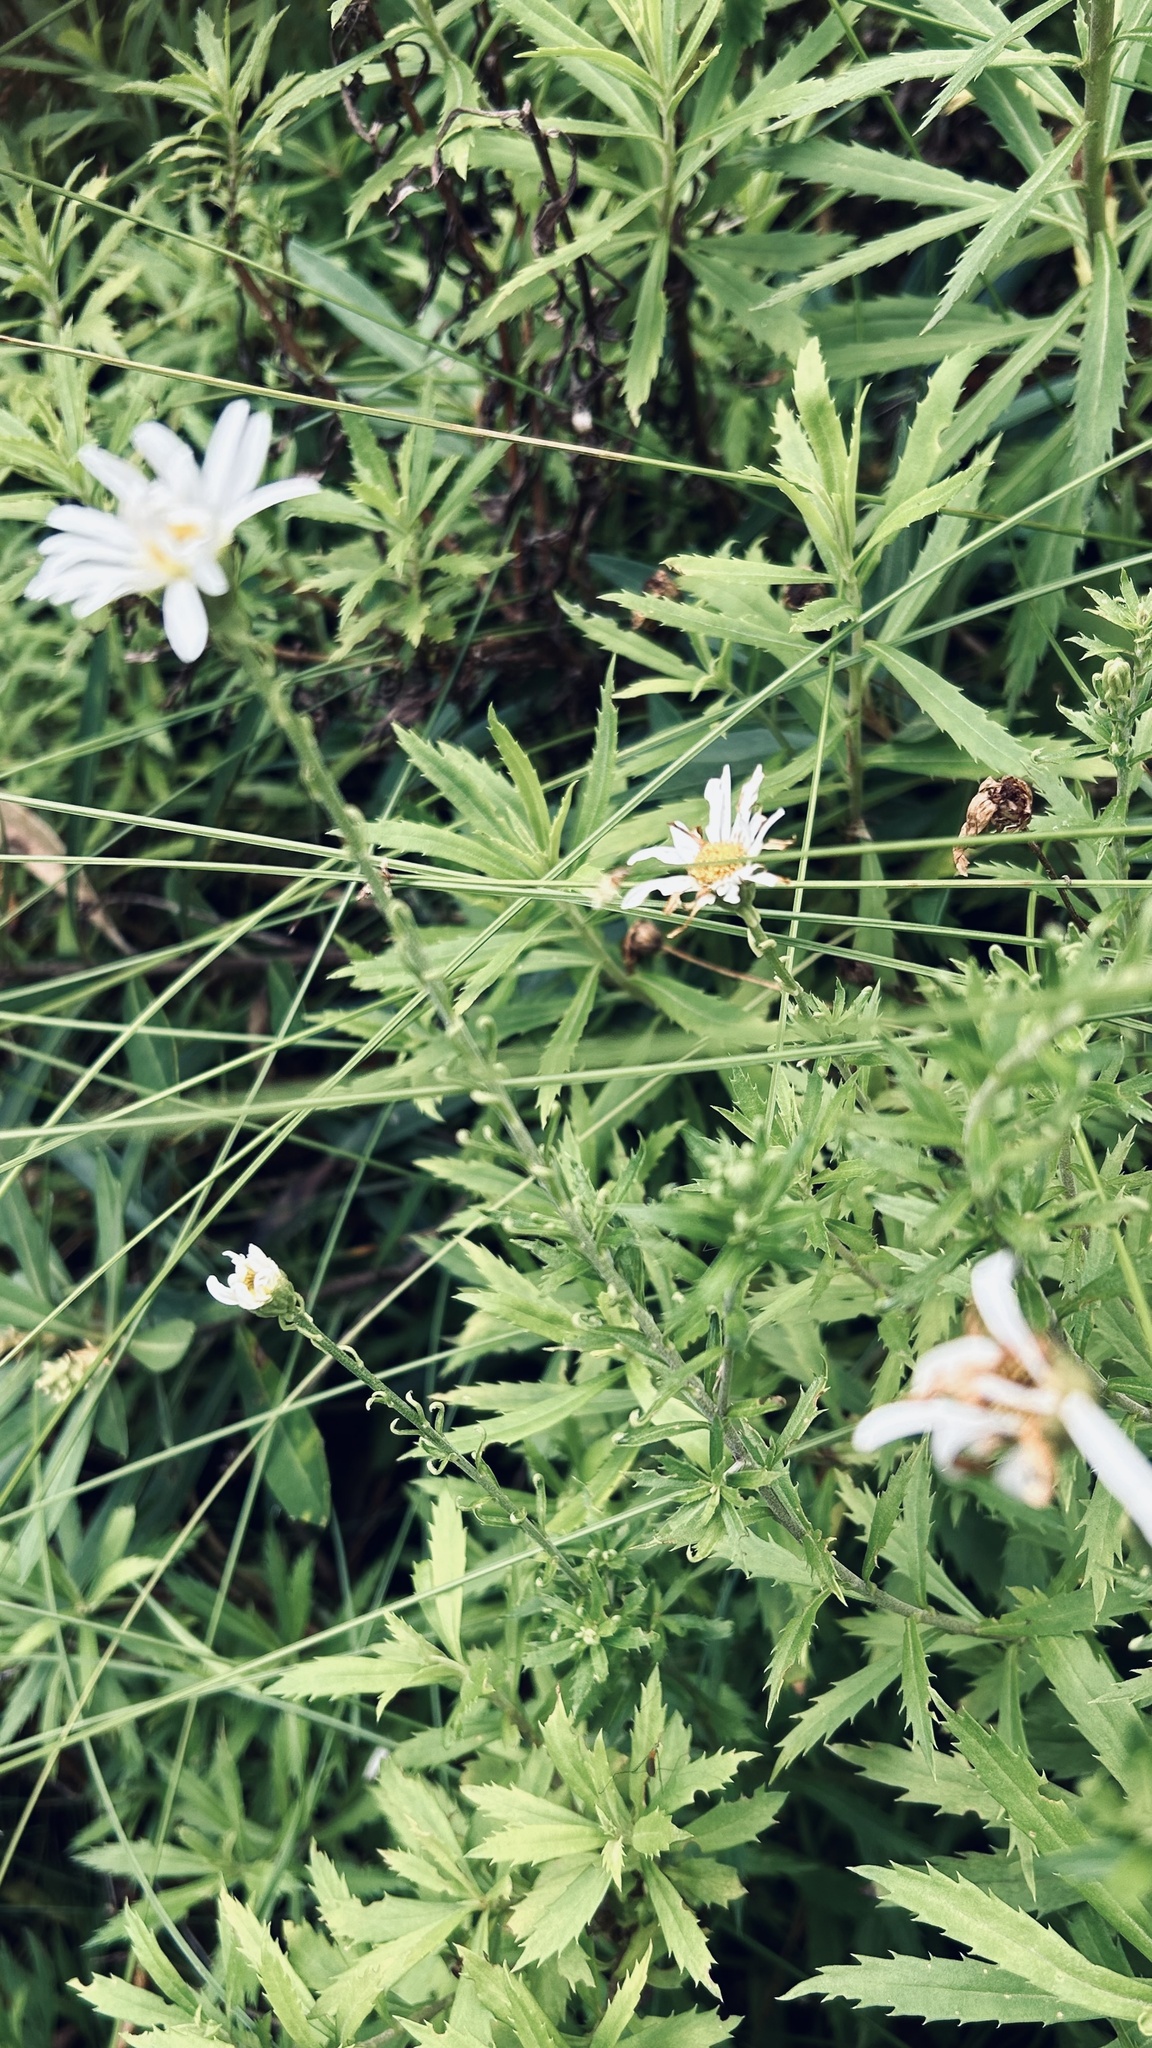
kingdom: Plantae
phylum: Tracheophyta
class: Magnoliopsida
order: Asterales
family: Asteraceae
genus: Osmitopsis
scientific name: Osmitopsis osmitoides
